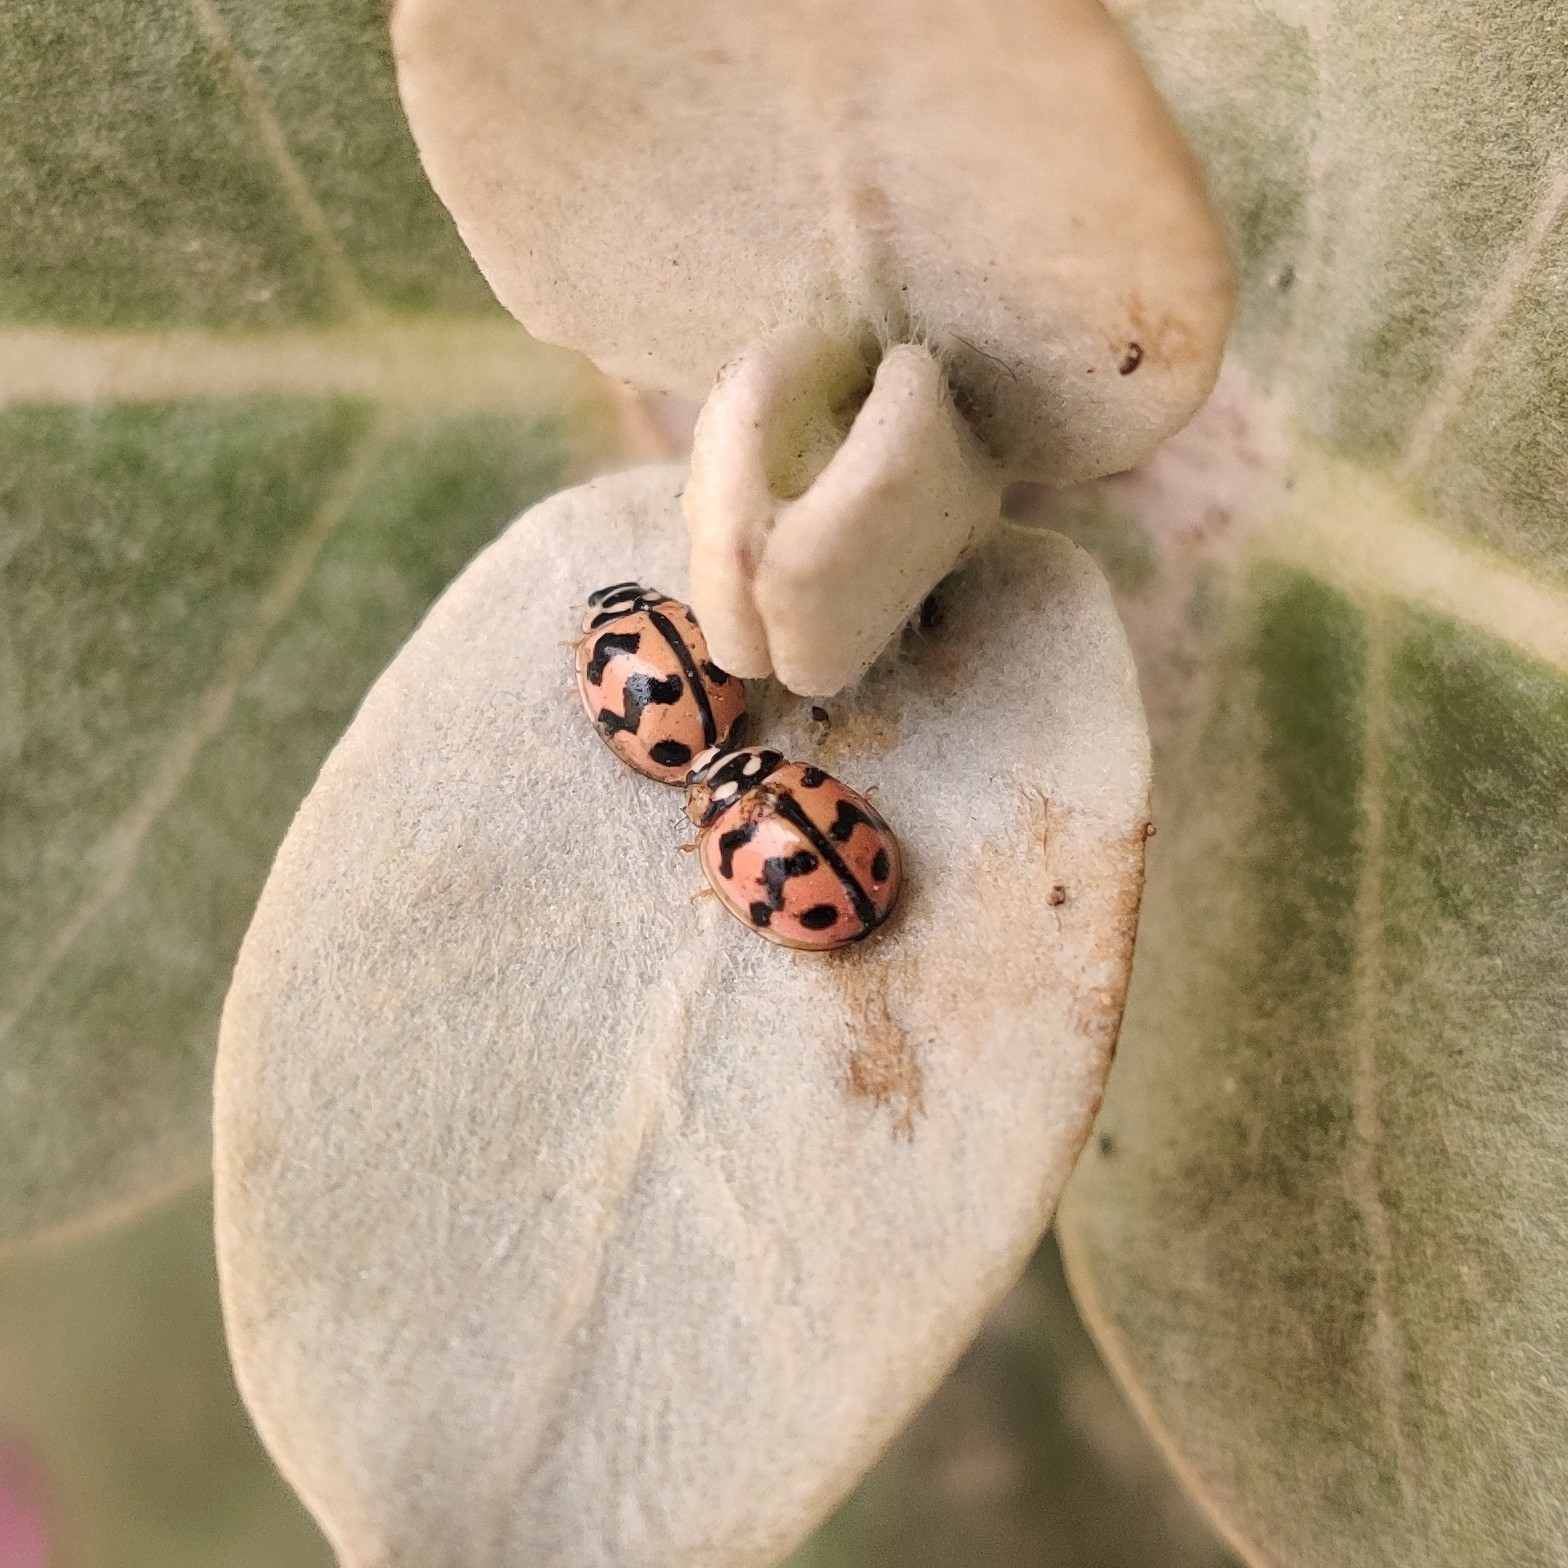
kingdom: Animalia
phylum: Arthropoda
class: Insecta
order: Coleoptera
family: Coccinellidae
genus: Cheilomenes
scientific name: Cheilomenes sexmaculata
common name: Ladybird beetle
